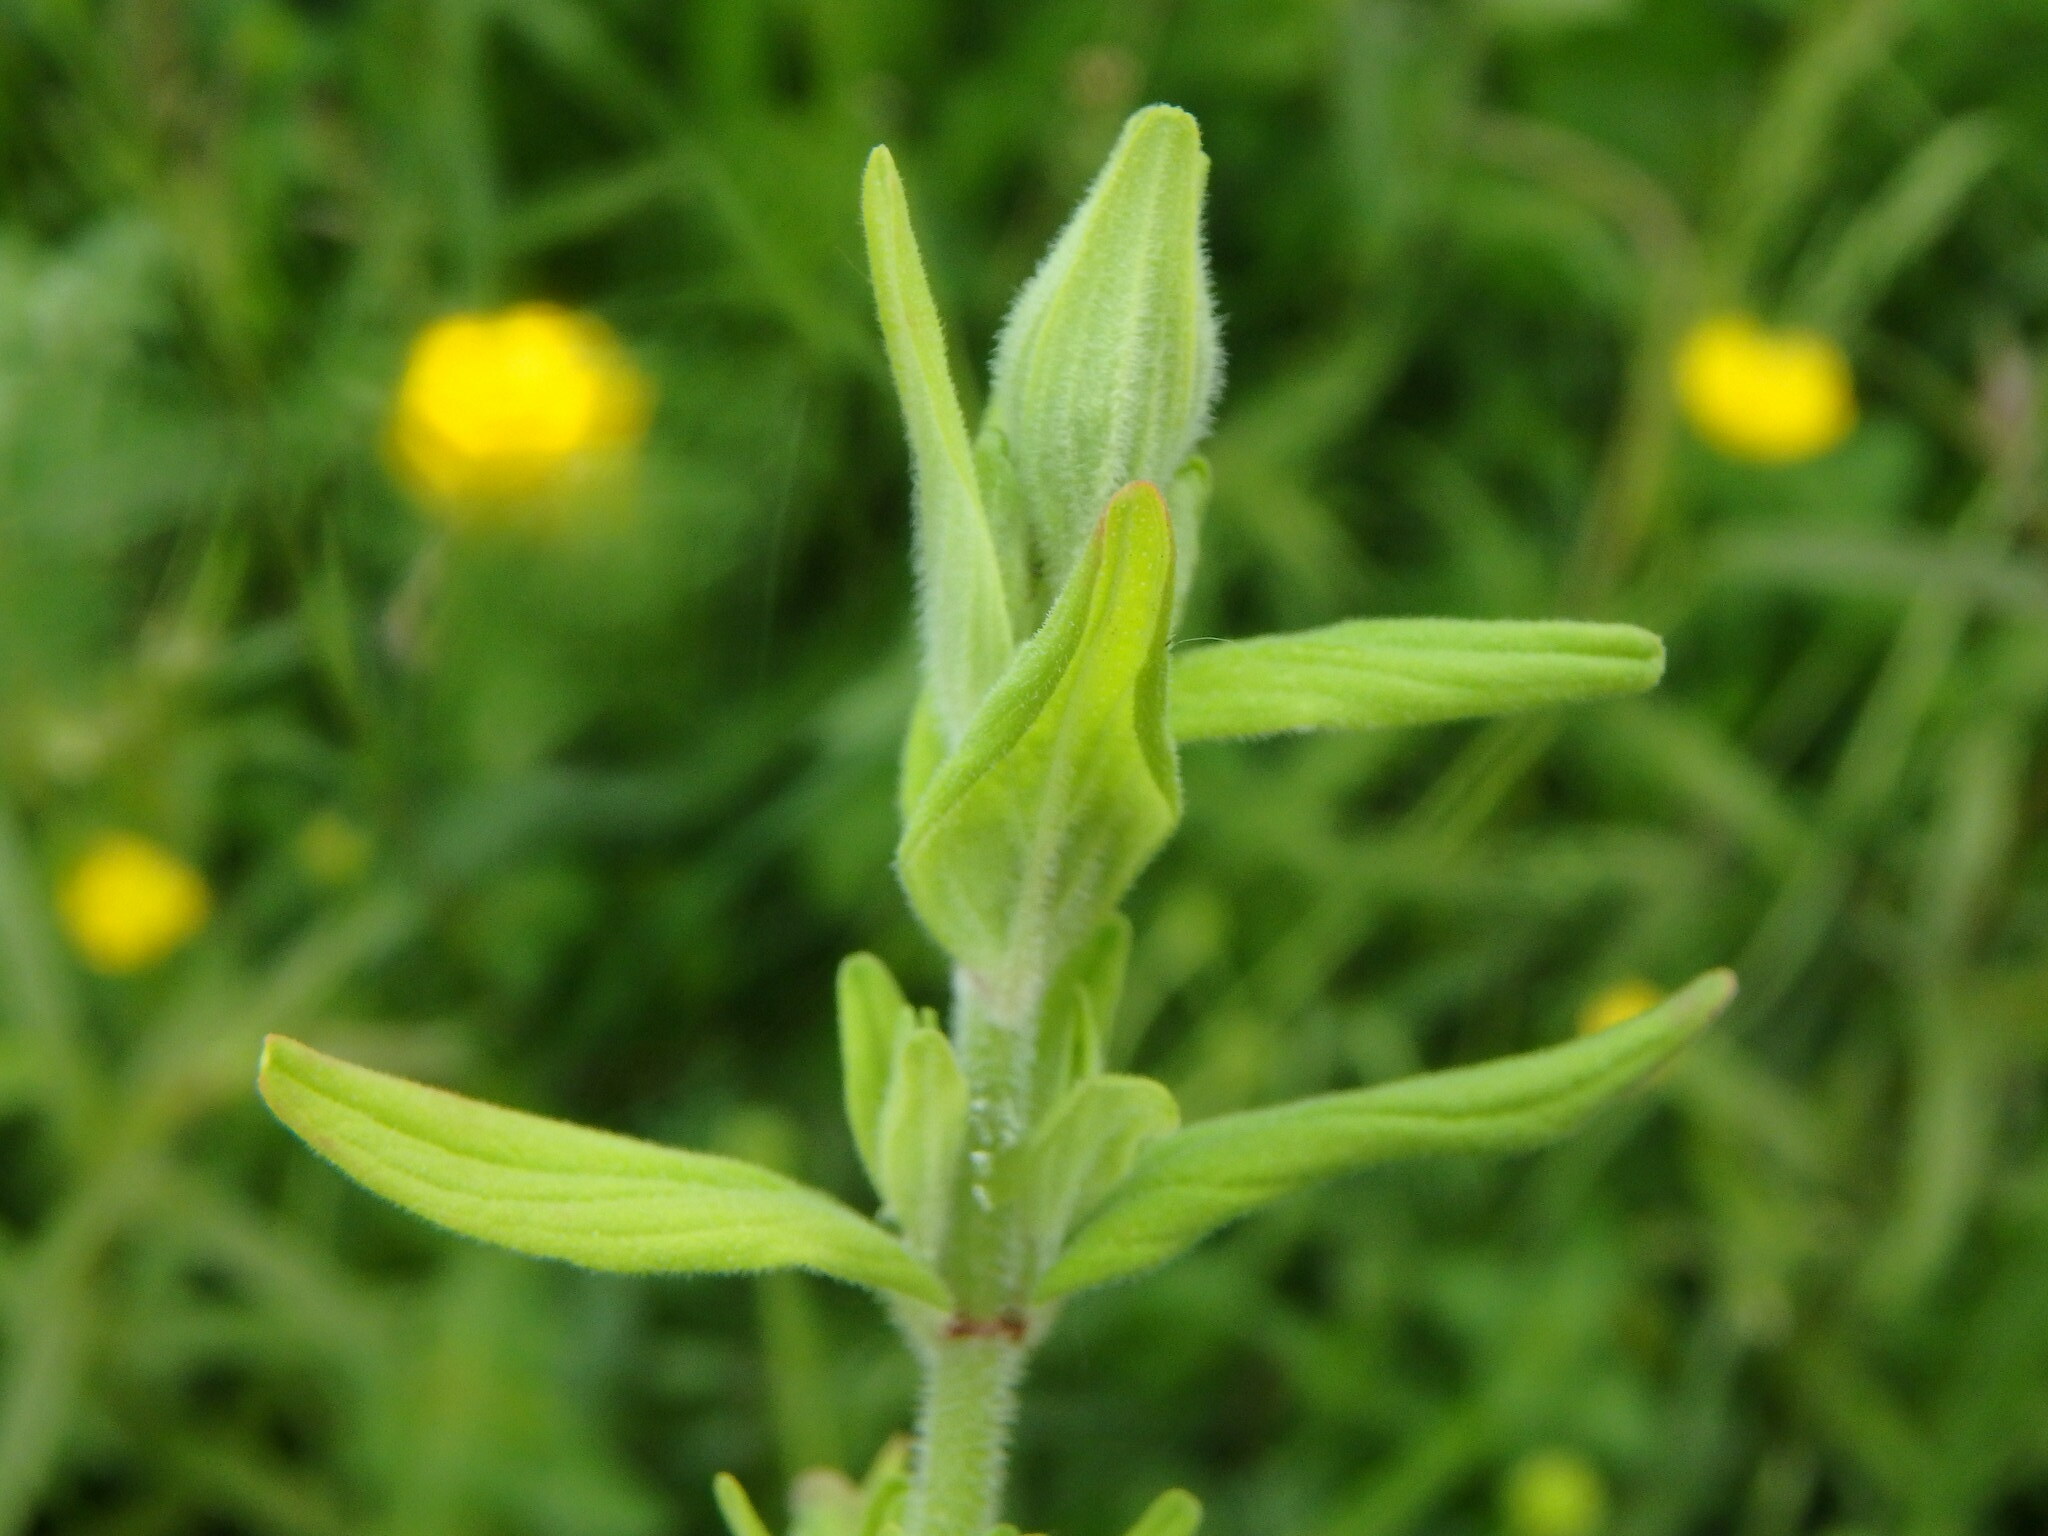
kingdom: Plantae
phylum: Tracheophyta
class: Magnoliopsida
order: Malpighiales
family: Hypericaceae
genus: Hypericum
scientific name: Hypericum hirsutum
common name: Hairy st. john's-wort
